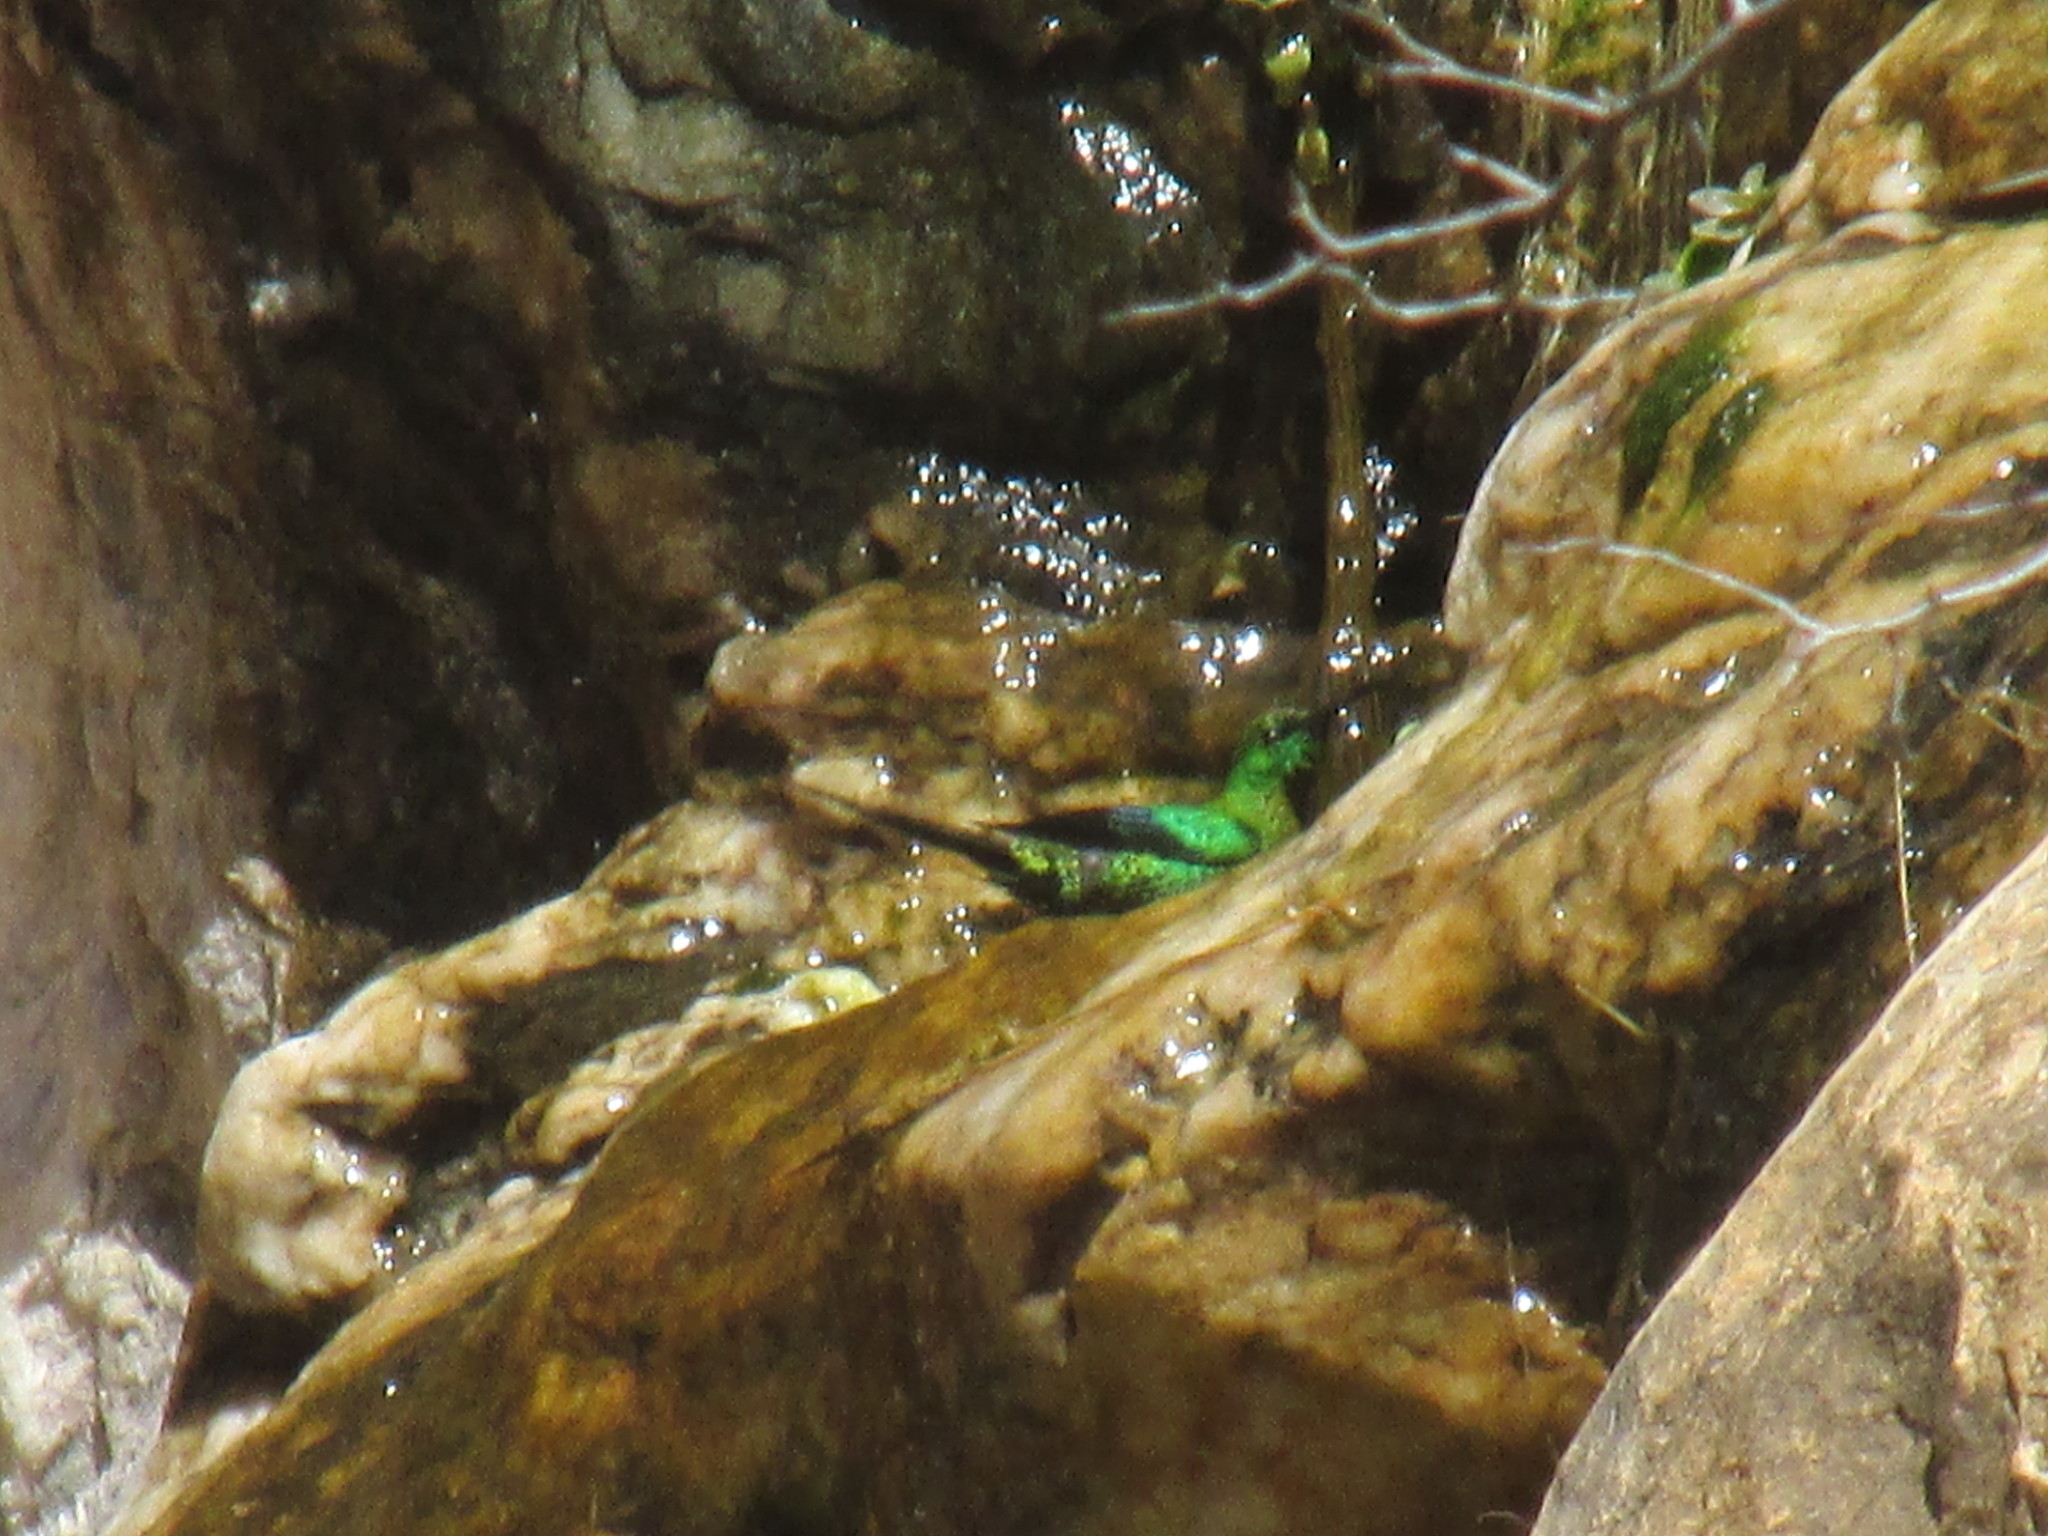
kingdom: Animalia
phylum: Chordata
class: Aves
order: Passeriformes
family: Nectariniidae
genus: Nectarinia
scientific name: Nectarinia famosa
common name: Malachite sunbird
